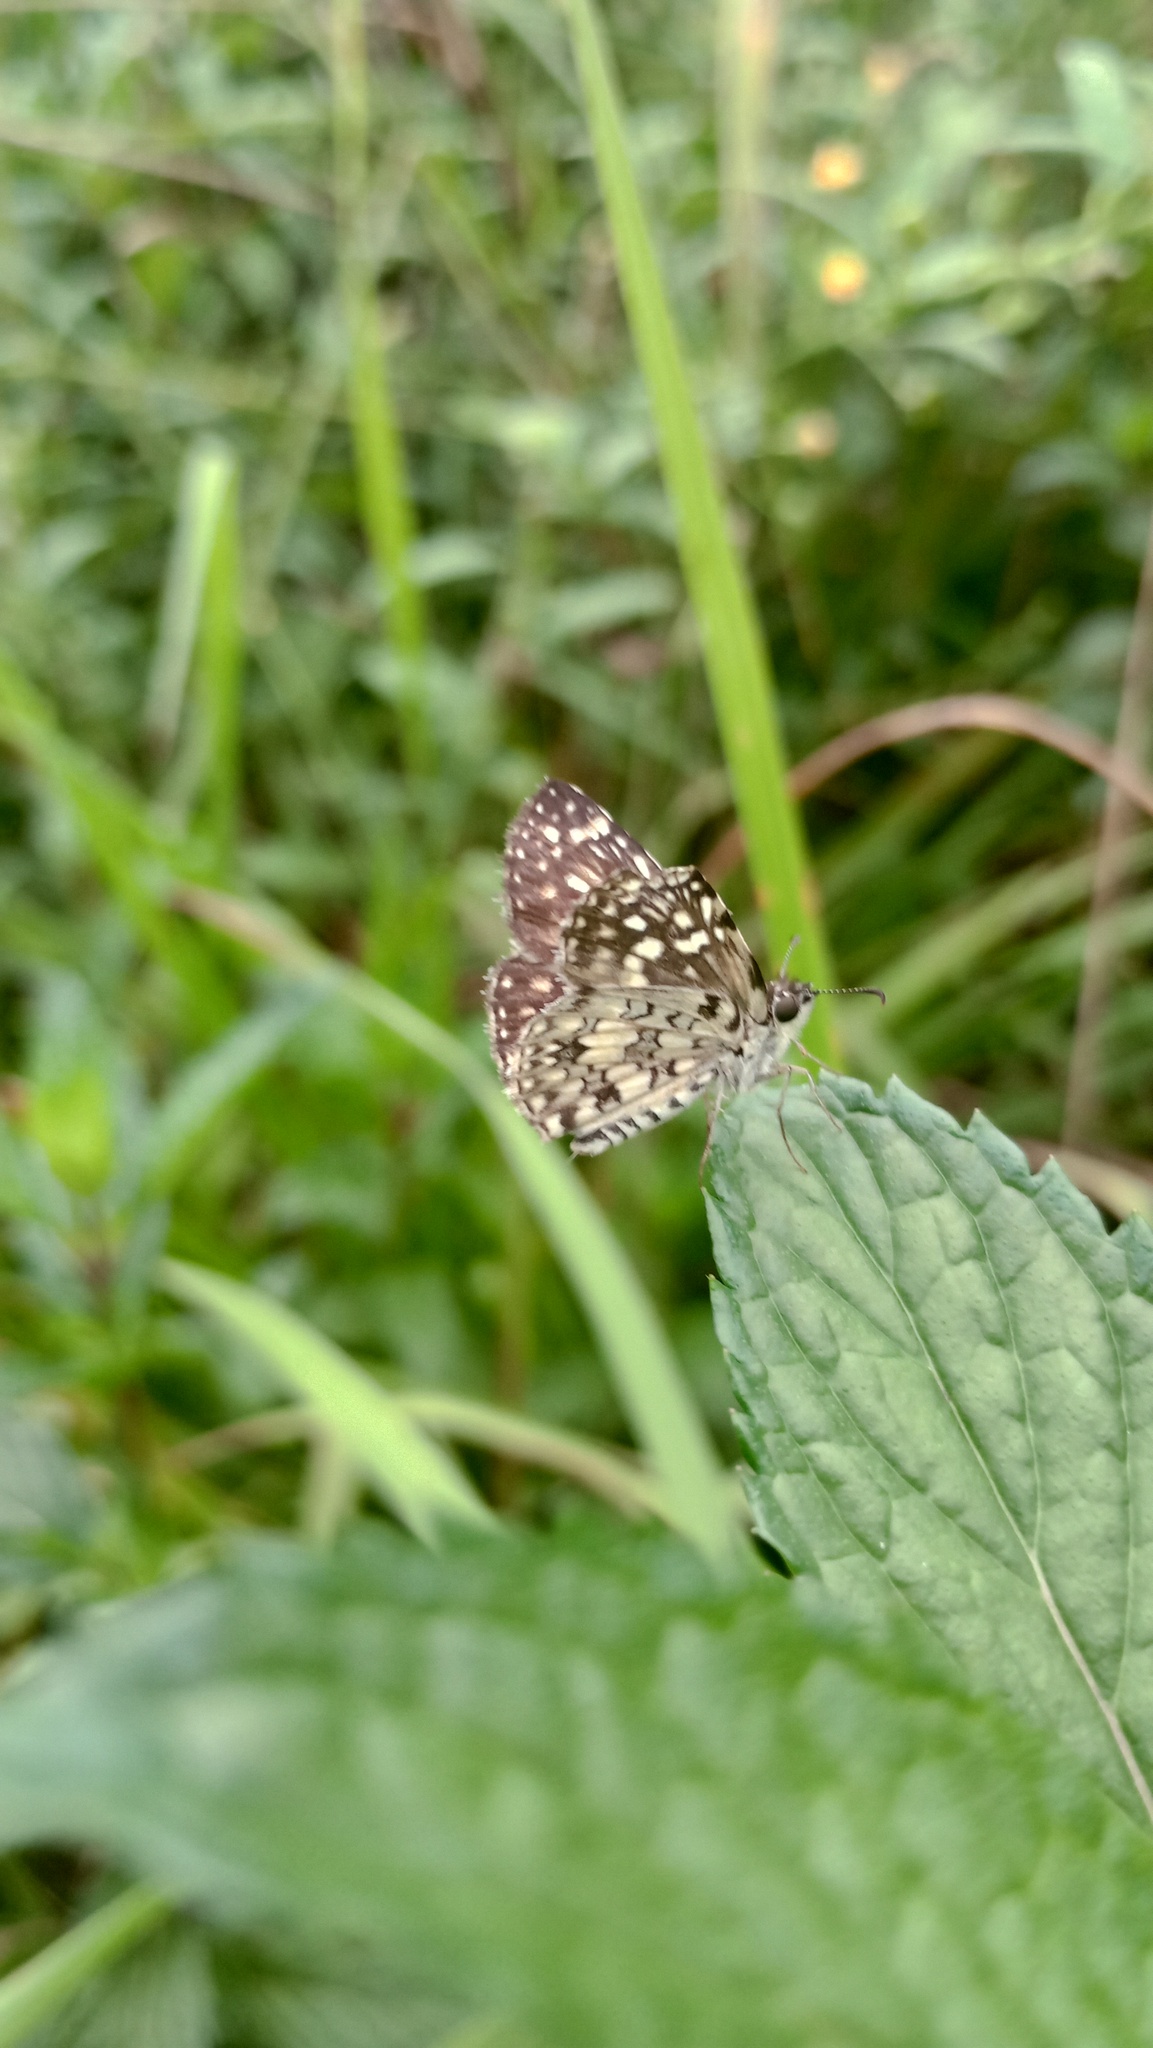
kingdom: Animalia
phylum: Arthropoda
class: Insecta
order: Lepidoptera
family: Hesperiidae
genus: Pyrgus
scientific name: Pyrgus oileus
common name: Tropical checkered-skipper
